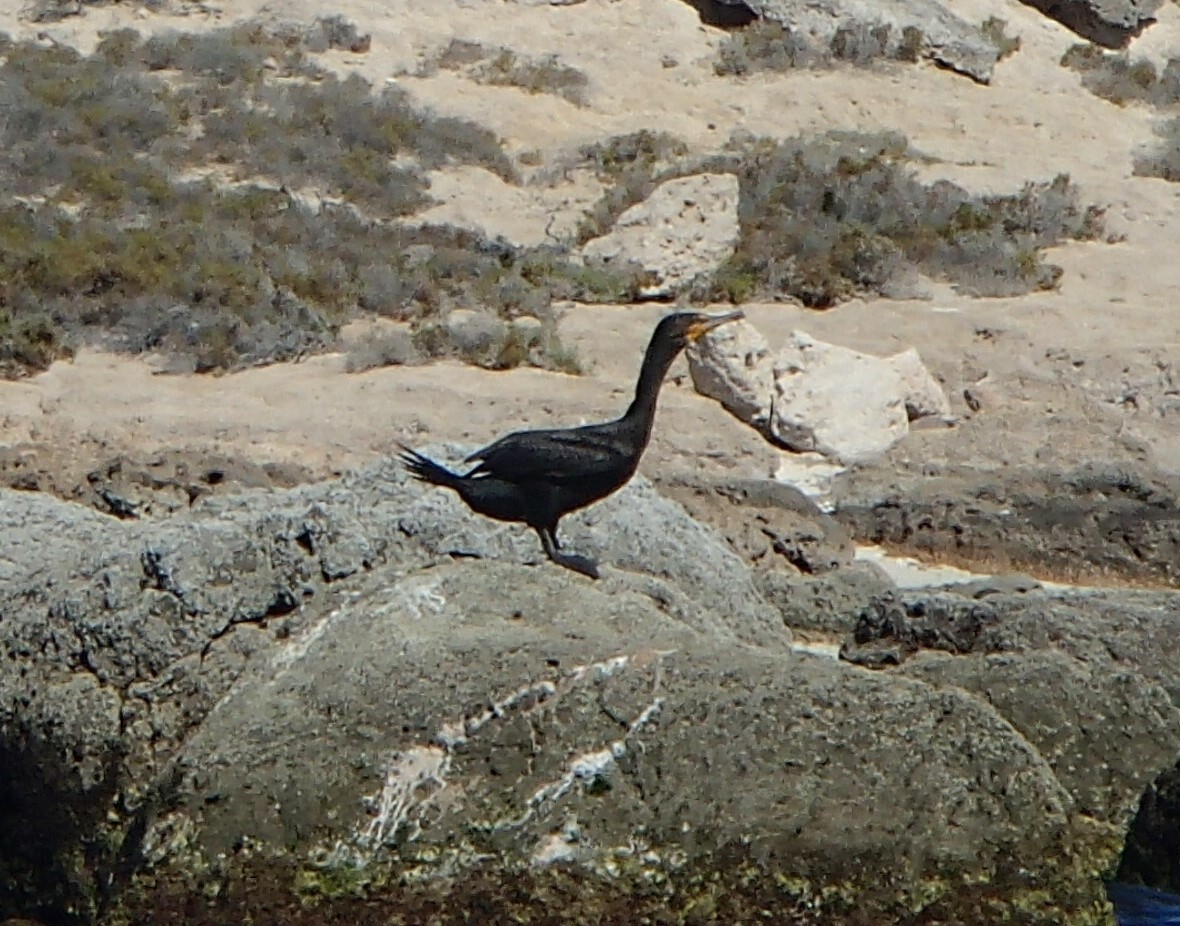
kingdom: Animalia
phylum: Chordata
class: Aves
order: Suliformes
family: Phalacrocoracidae
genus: Phalacrocorax
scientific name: Phalacrocorax auritus
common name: Double-crested cormorant
